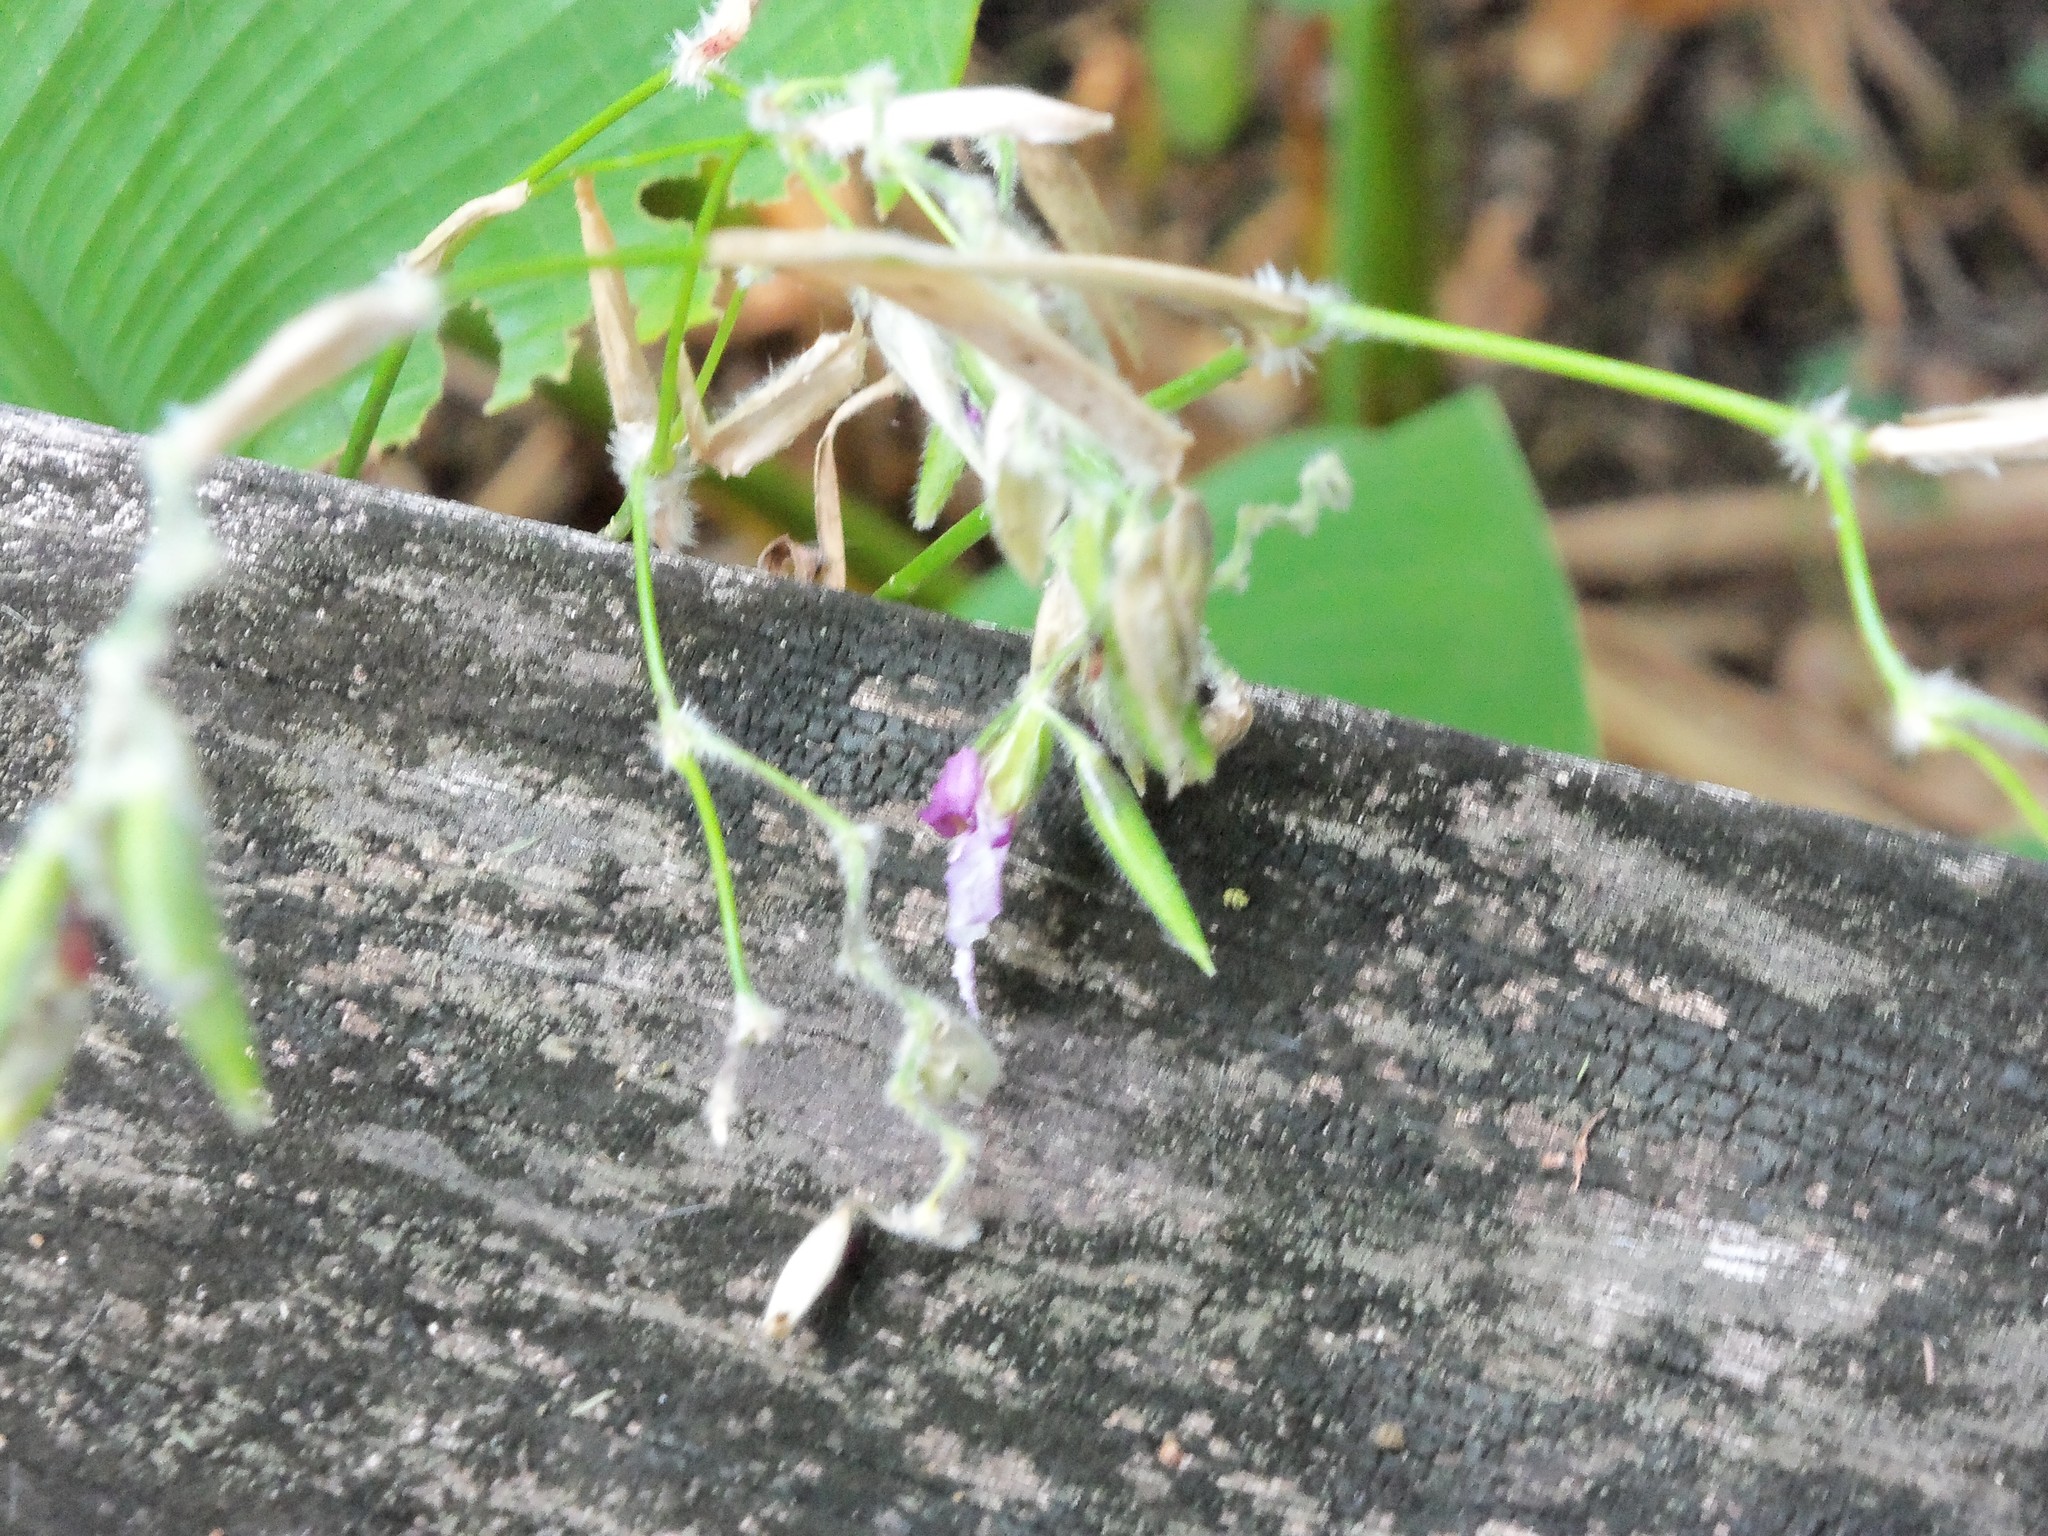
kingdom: Plantae
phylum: Tracheophyta
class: Liliopsida
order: Zingiberales
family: Marantaceae
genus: Thalia
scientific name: Thalia geniculata
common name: Arrowroot
